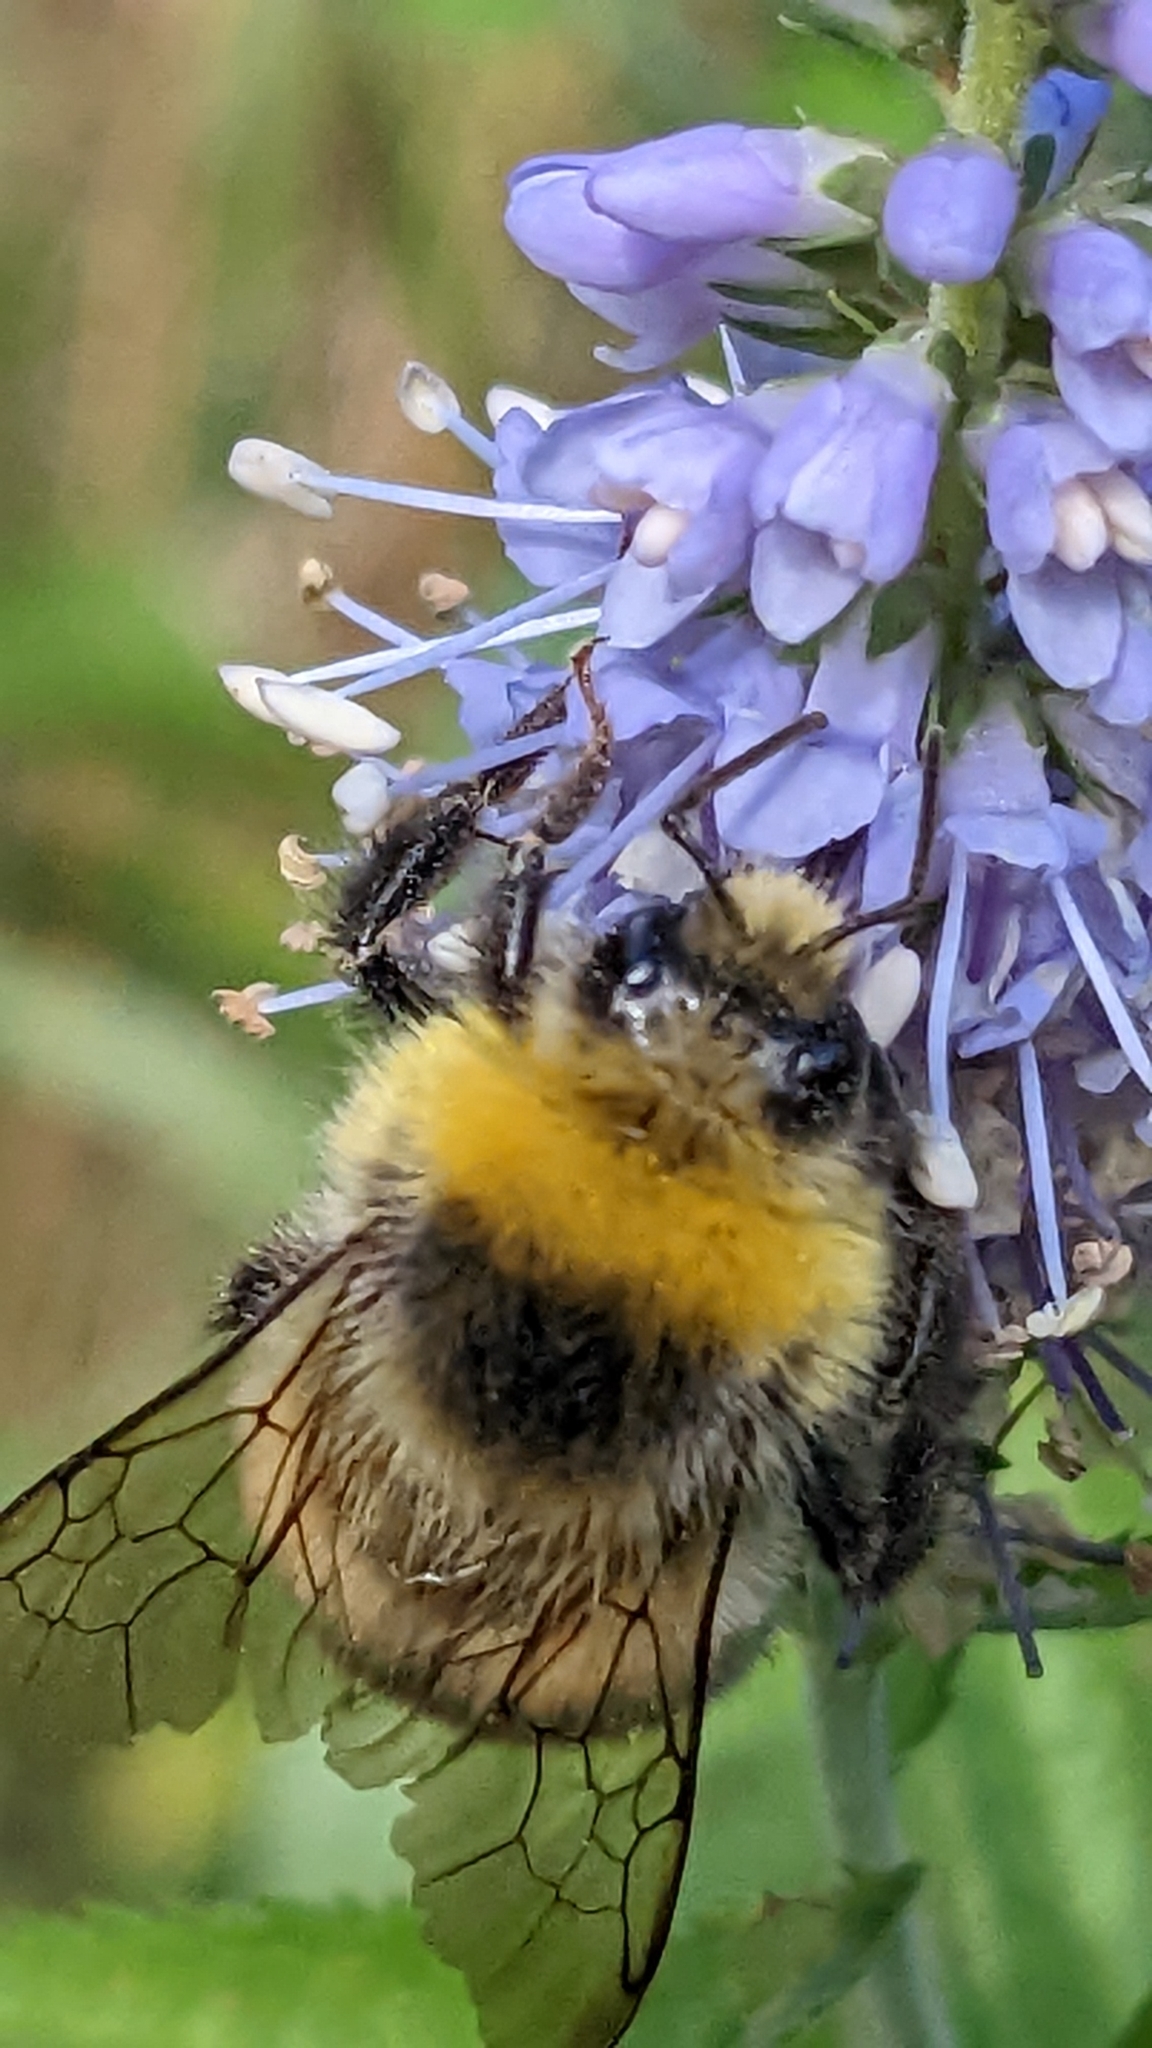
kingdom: Animalia
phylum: Arthropoda
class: Insecta
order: Hymenoptera
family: Apidae
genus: Bombus
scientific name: Bombus lucorum
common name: White-tailed bumblebee
